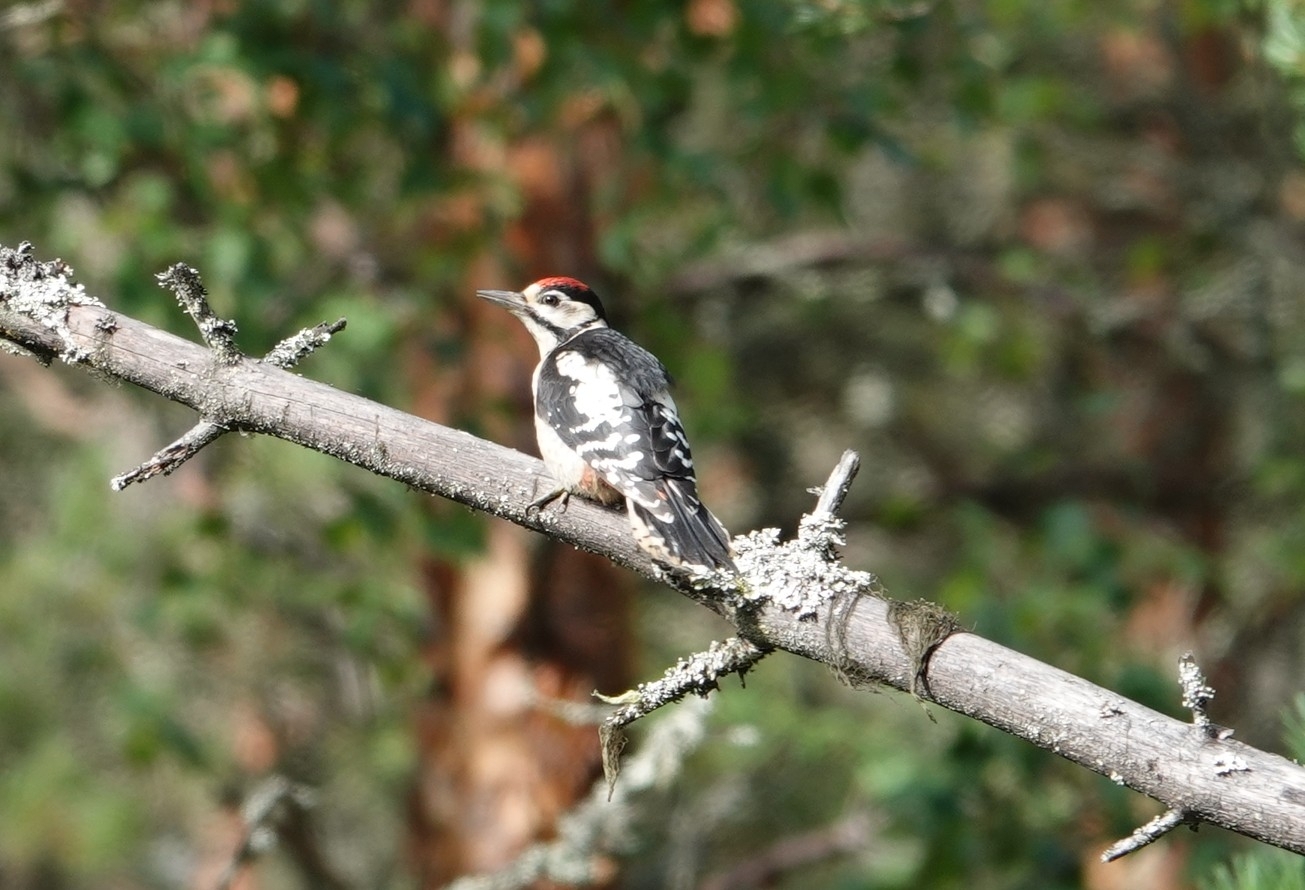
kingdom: Animalia
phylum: Chordata
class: Aves
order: Piciformes
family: Picidae
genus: Dendrocopos
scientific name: Dendrocopos major
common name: Great spotted woodpecker
